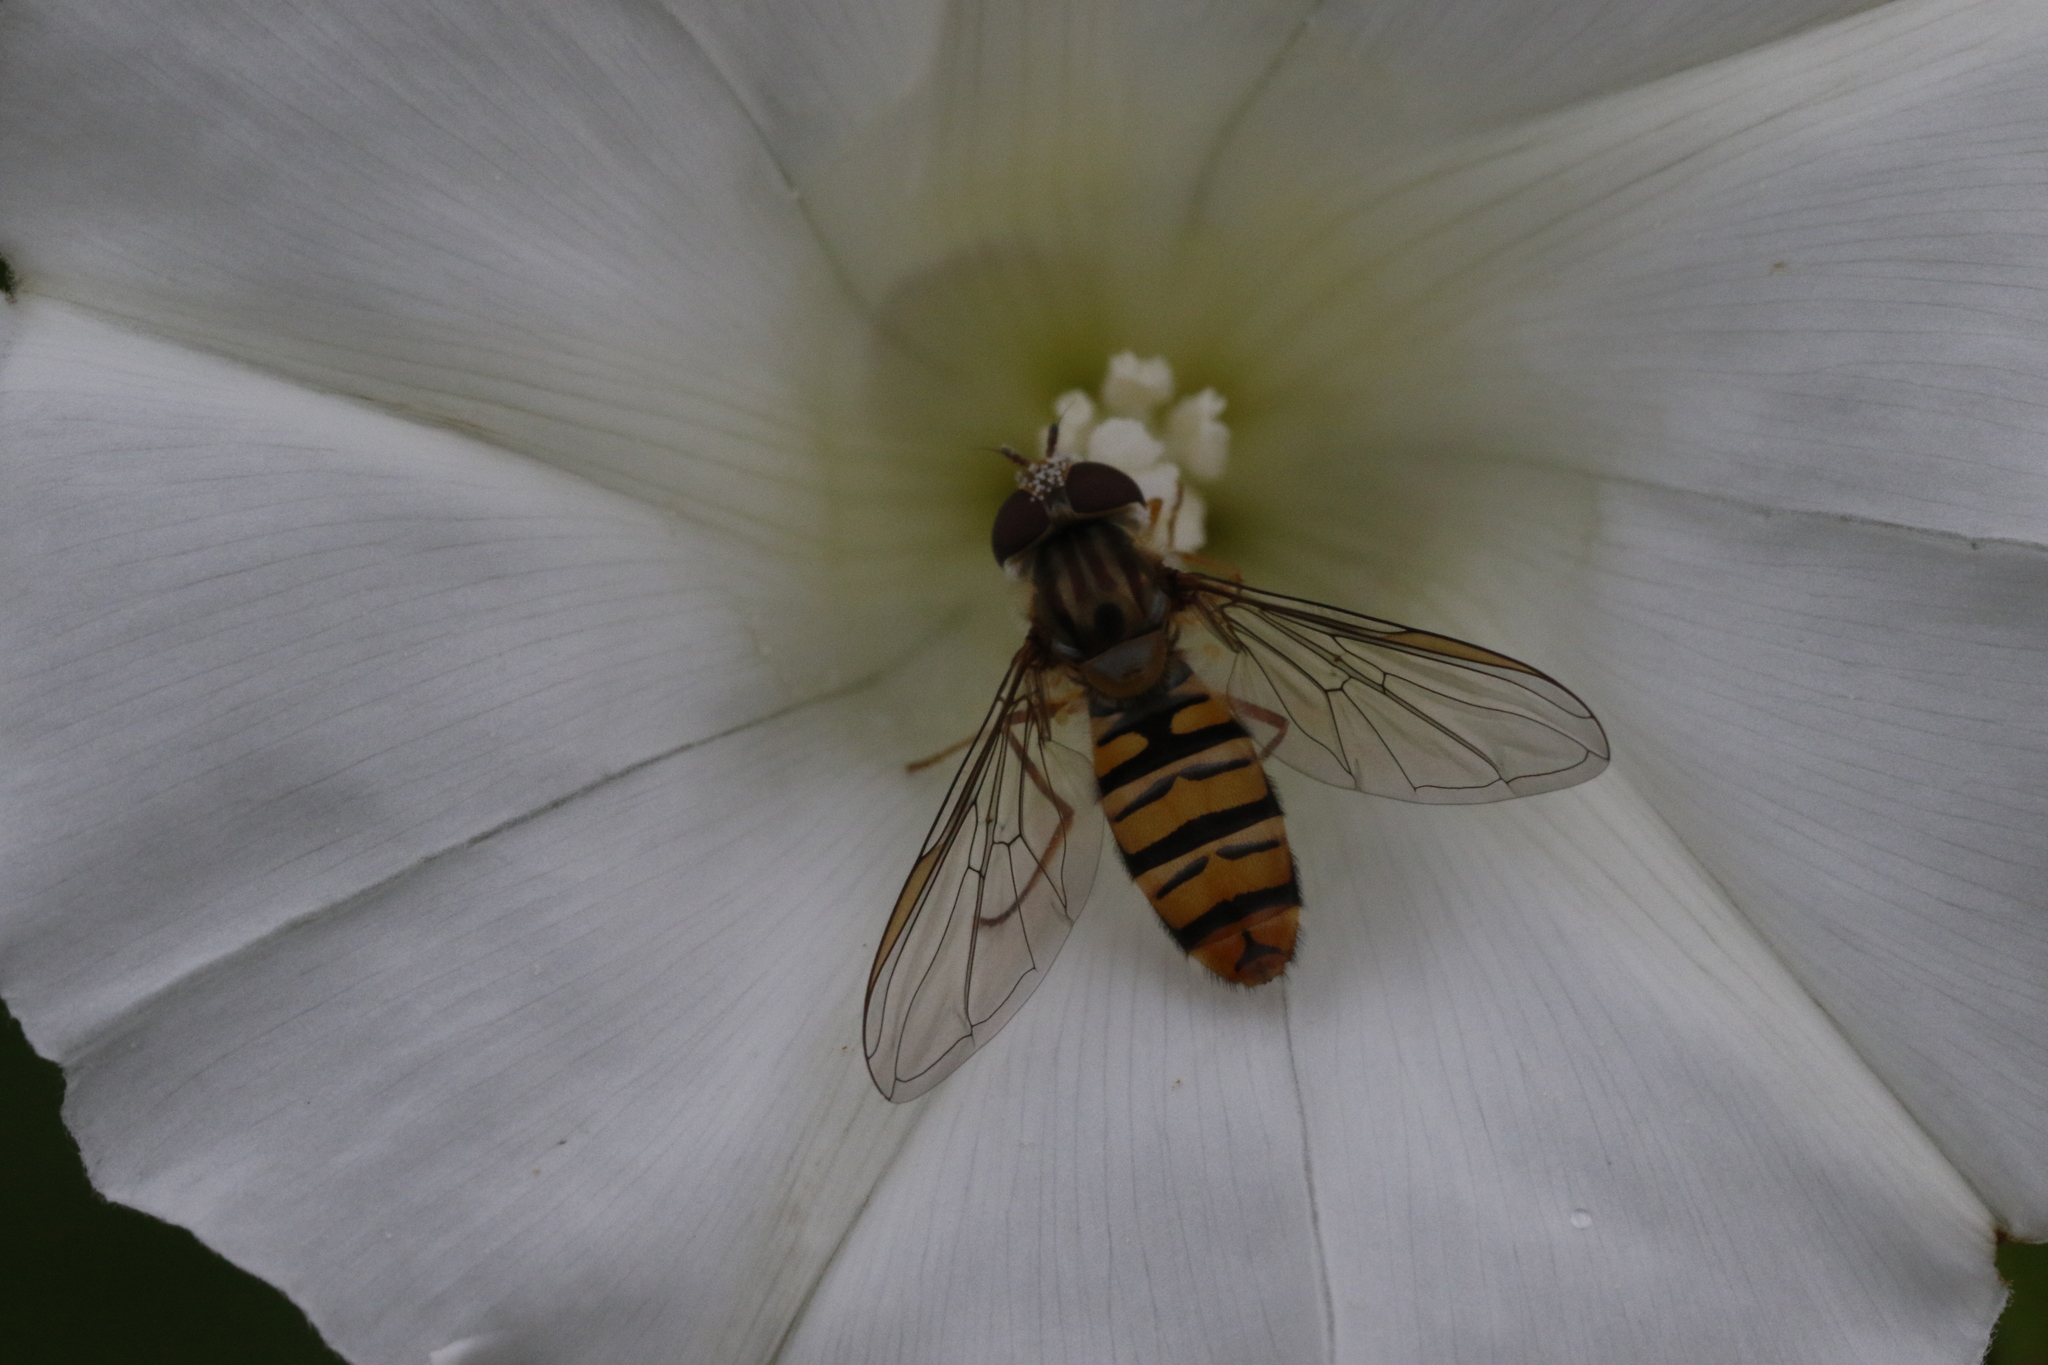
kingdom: Animalia
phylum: Arthropoda
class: Insecta
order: Diptera
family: Syrphidae
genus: Episyrphus
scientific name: Episyrphus balteatus
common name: Marmalade hoverfly
